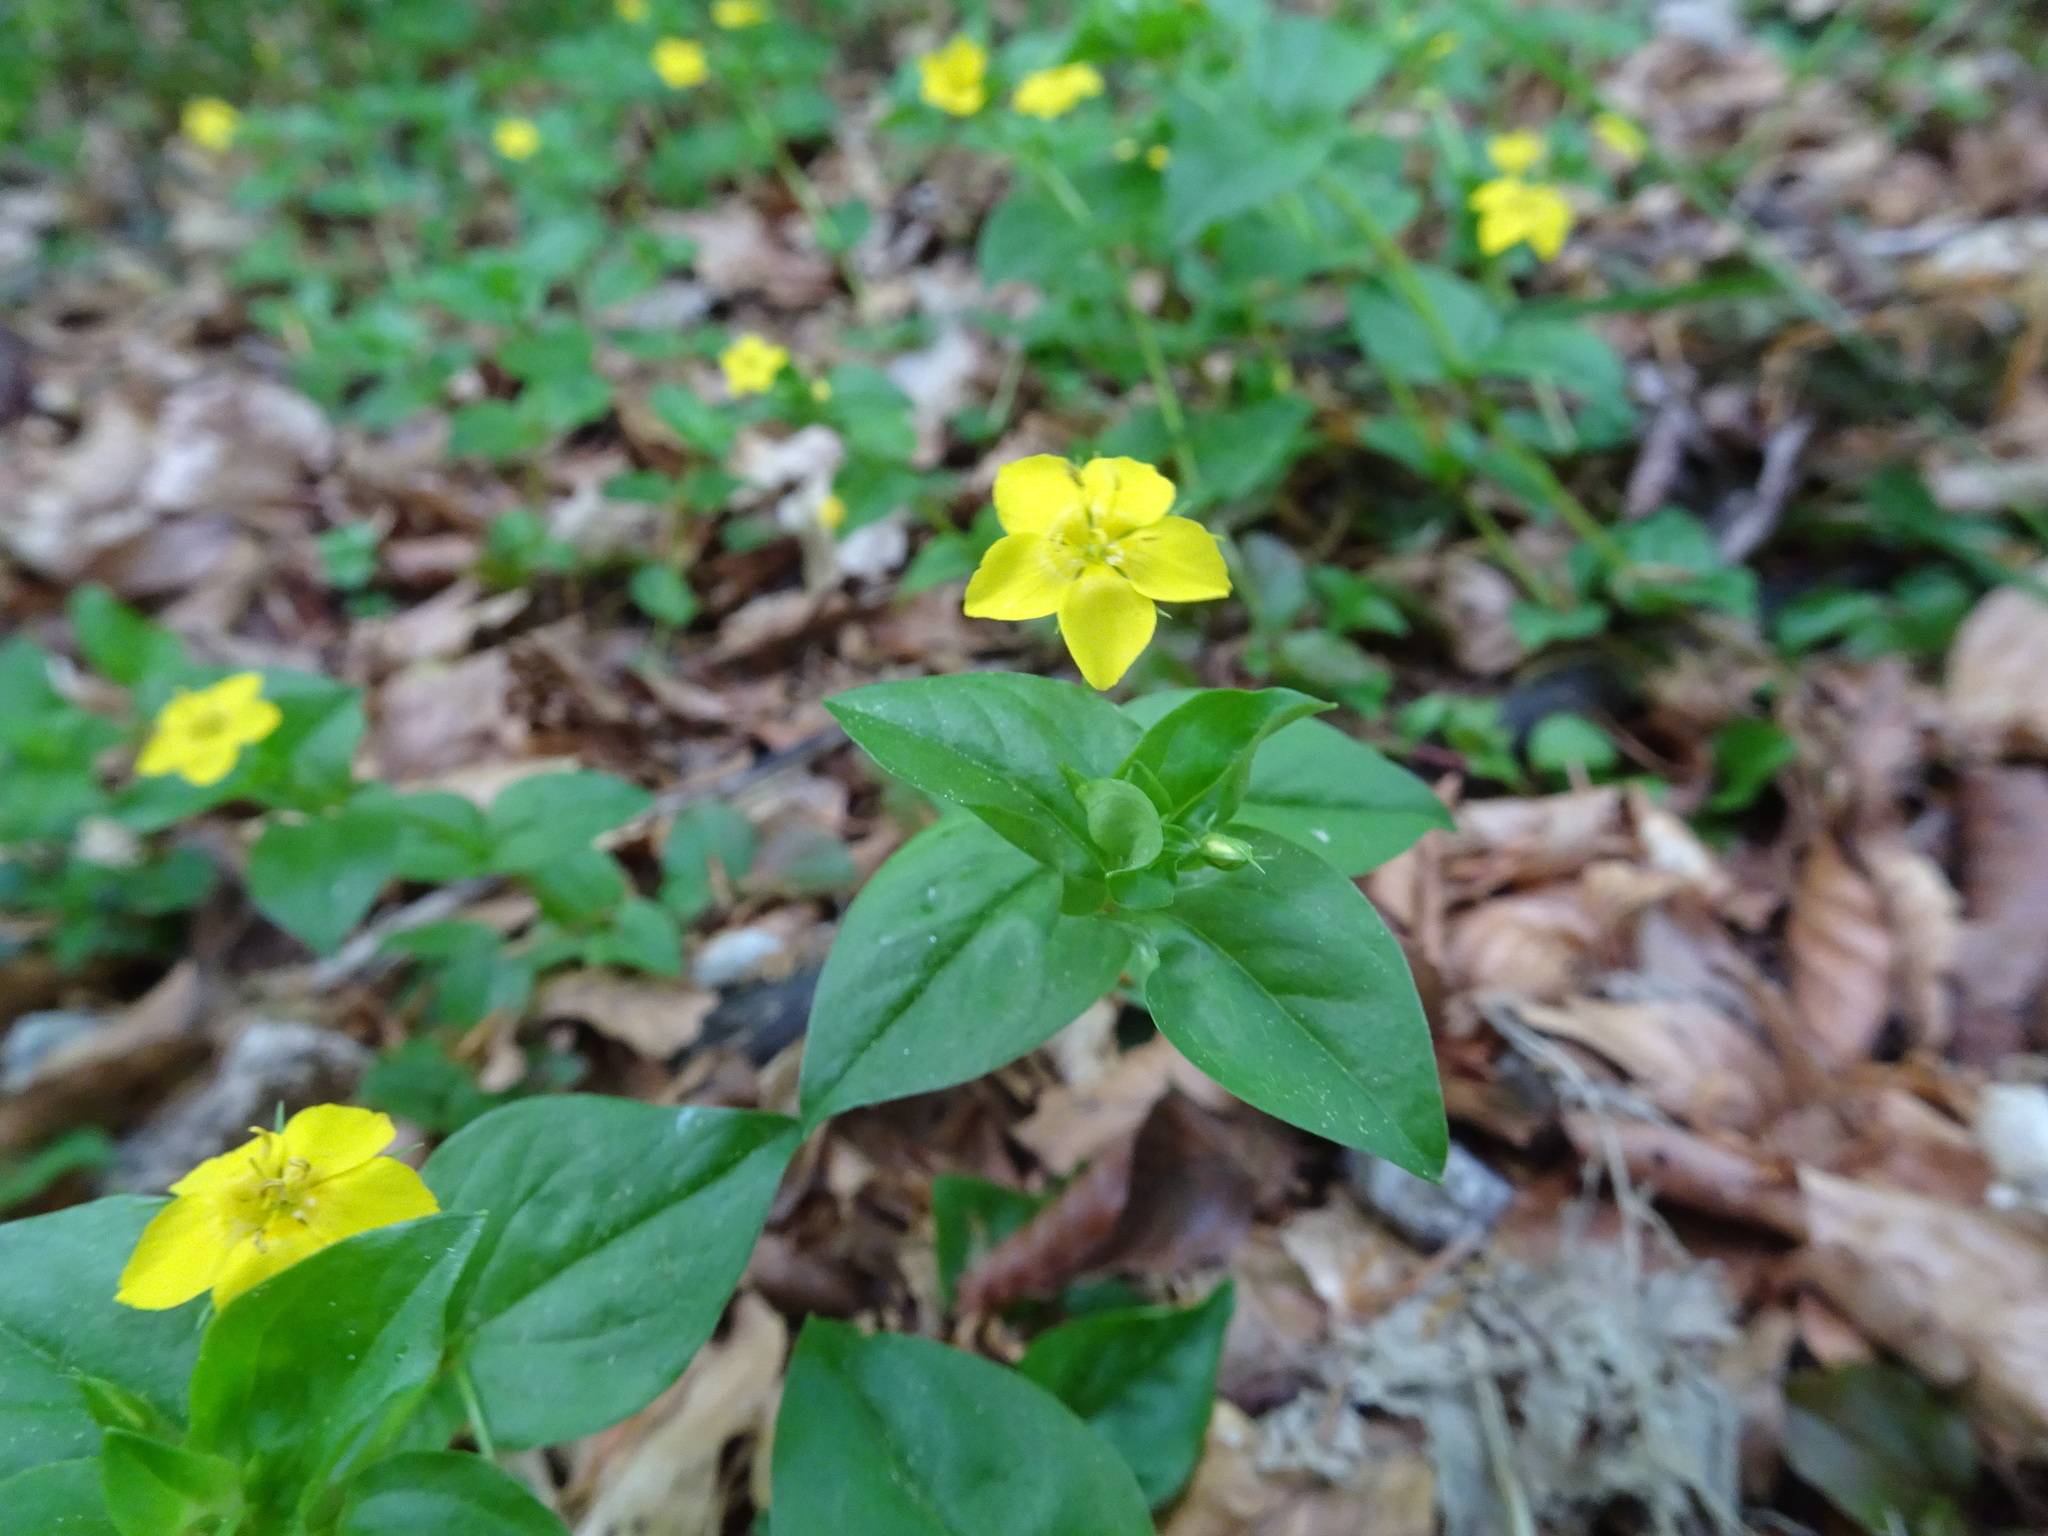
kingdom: Plantae
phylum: Tracheophyta
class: Magnoliopsida
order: Ericales
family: Primulaceae
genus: Lysimachia
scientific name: Lysimachia nemorum
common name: Yellow pimpernel
